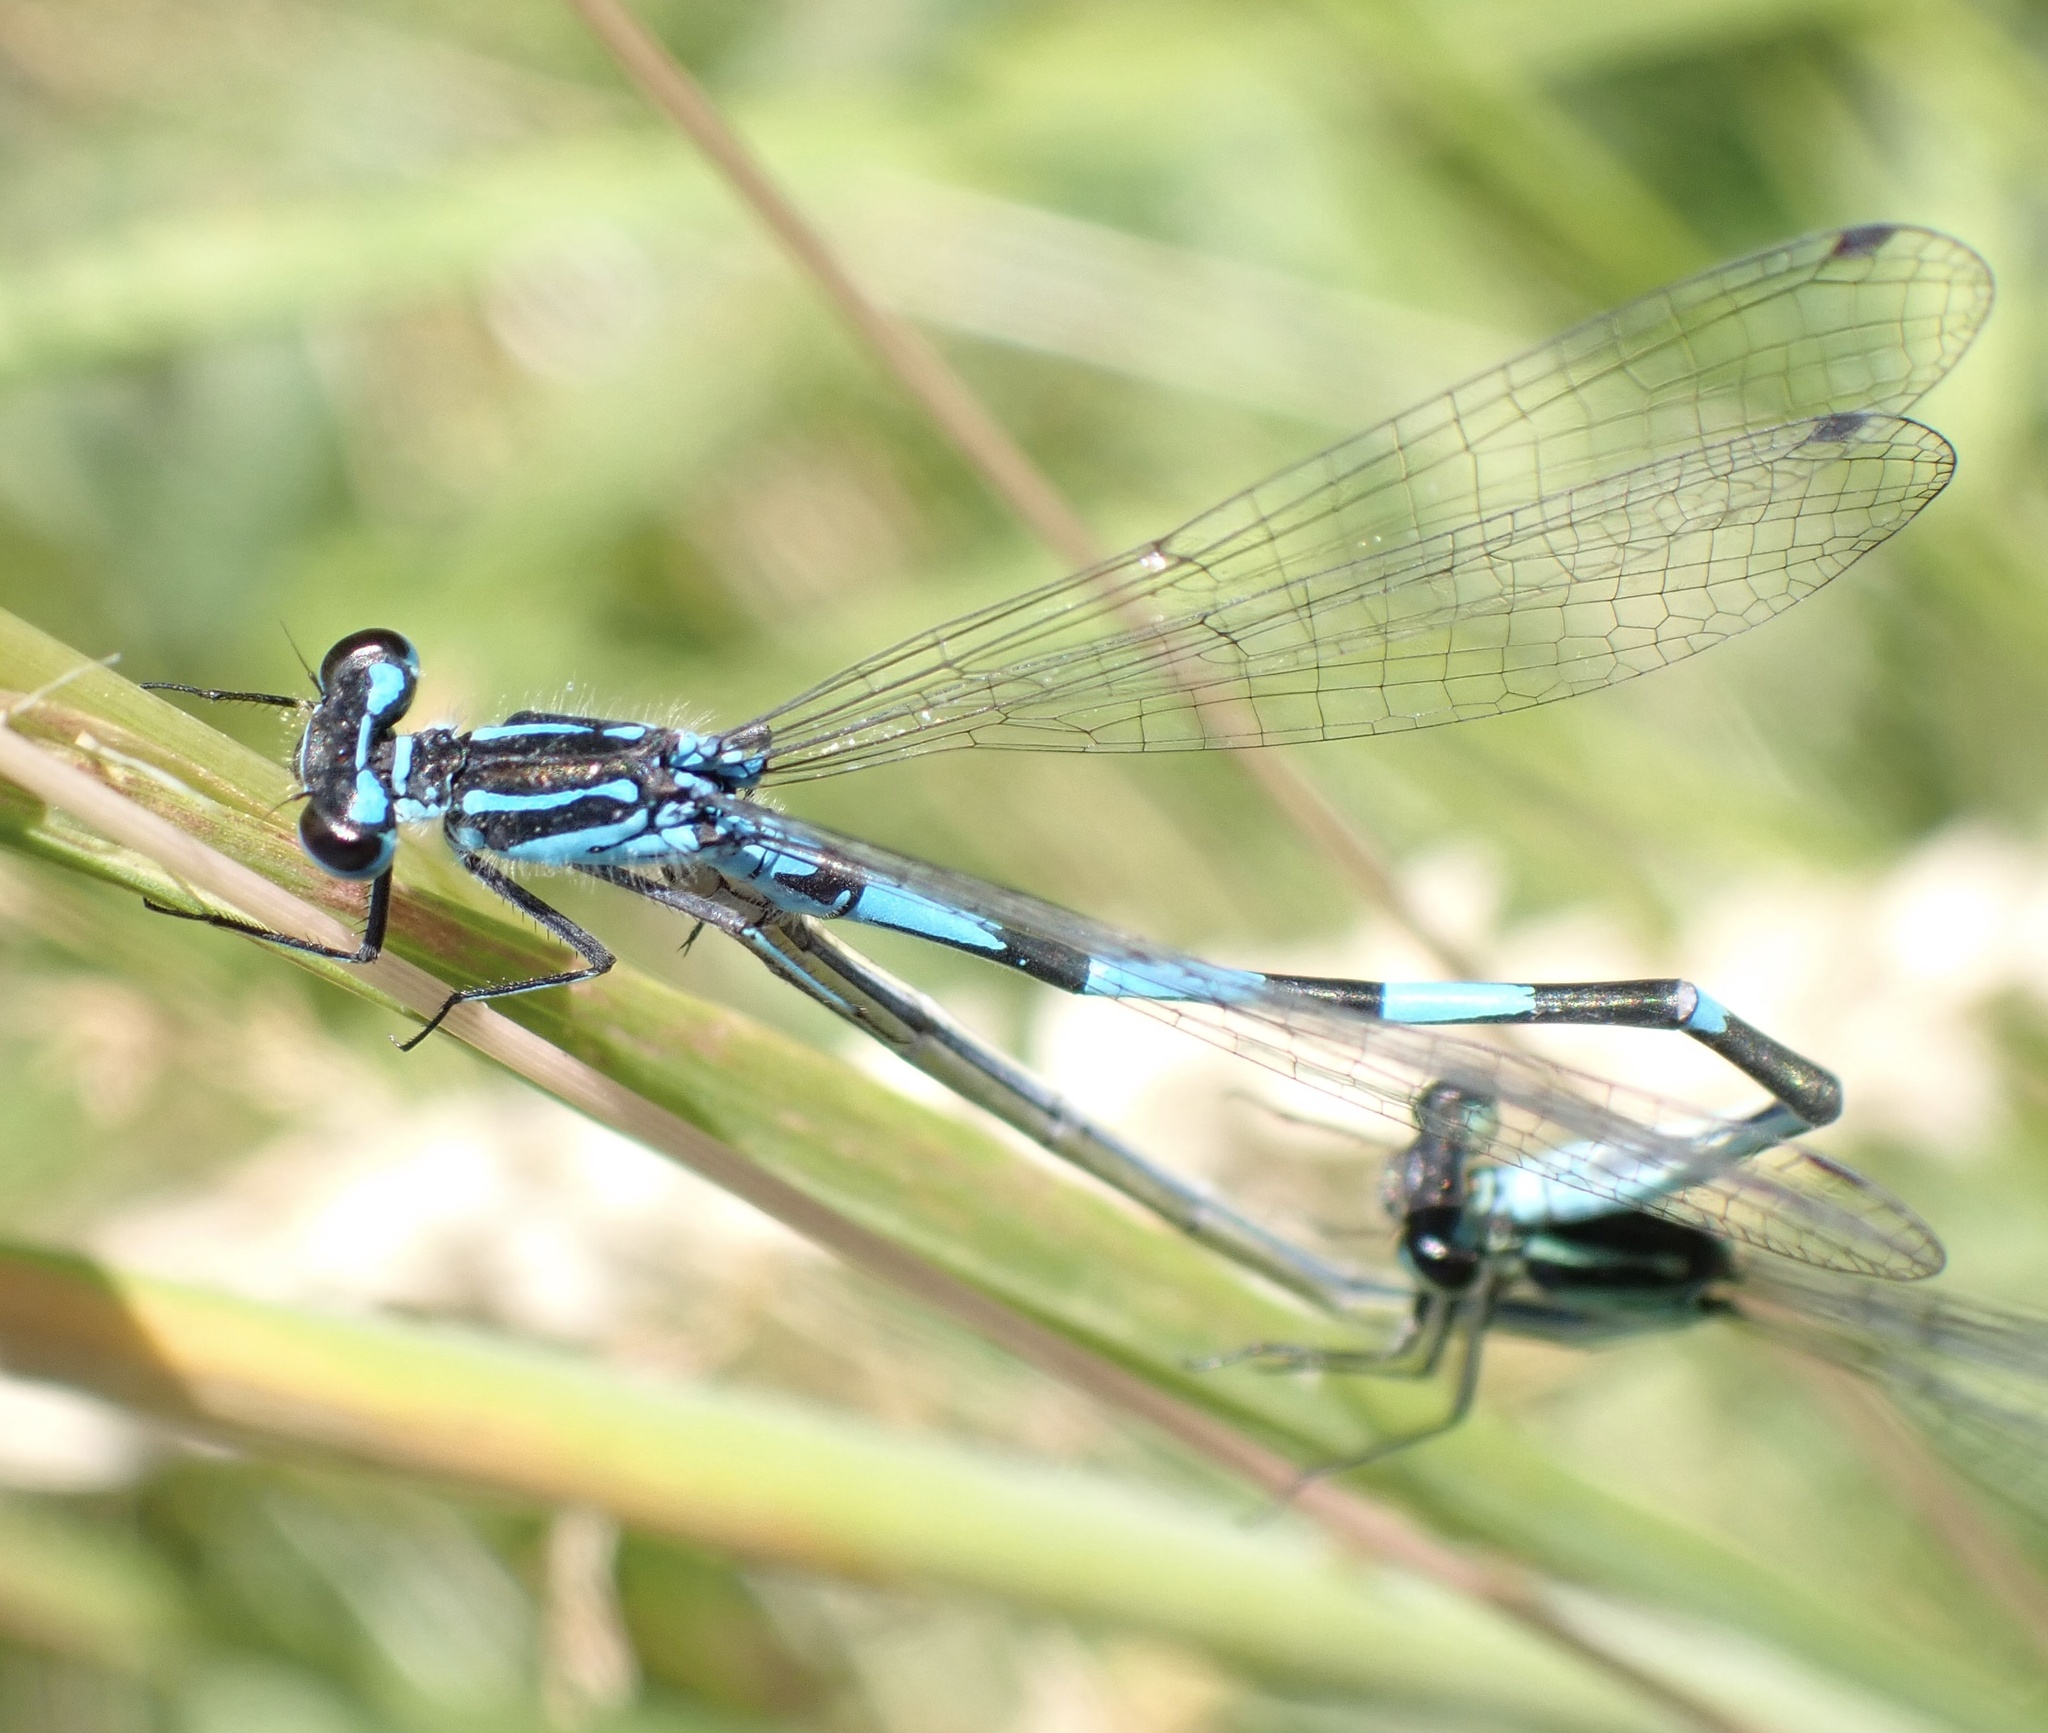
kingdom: Animalia
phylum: Arthropoda
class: Insecta
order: Odonata
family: Coenagrionidae
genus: Coenagrion
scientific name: Coenagrion pulchellum
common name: Variable bluet
